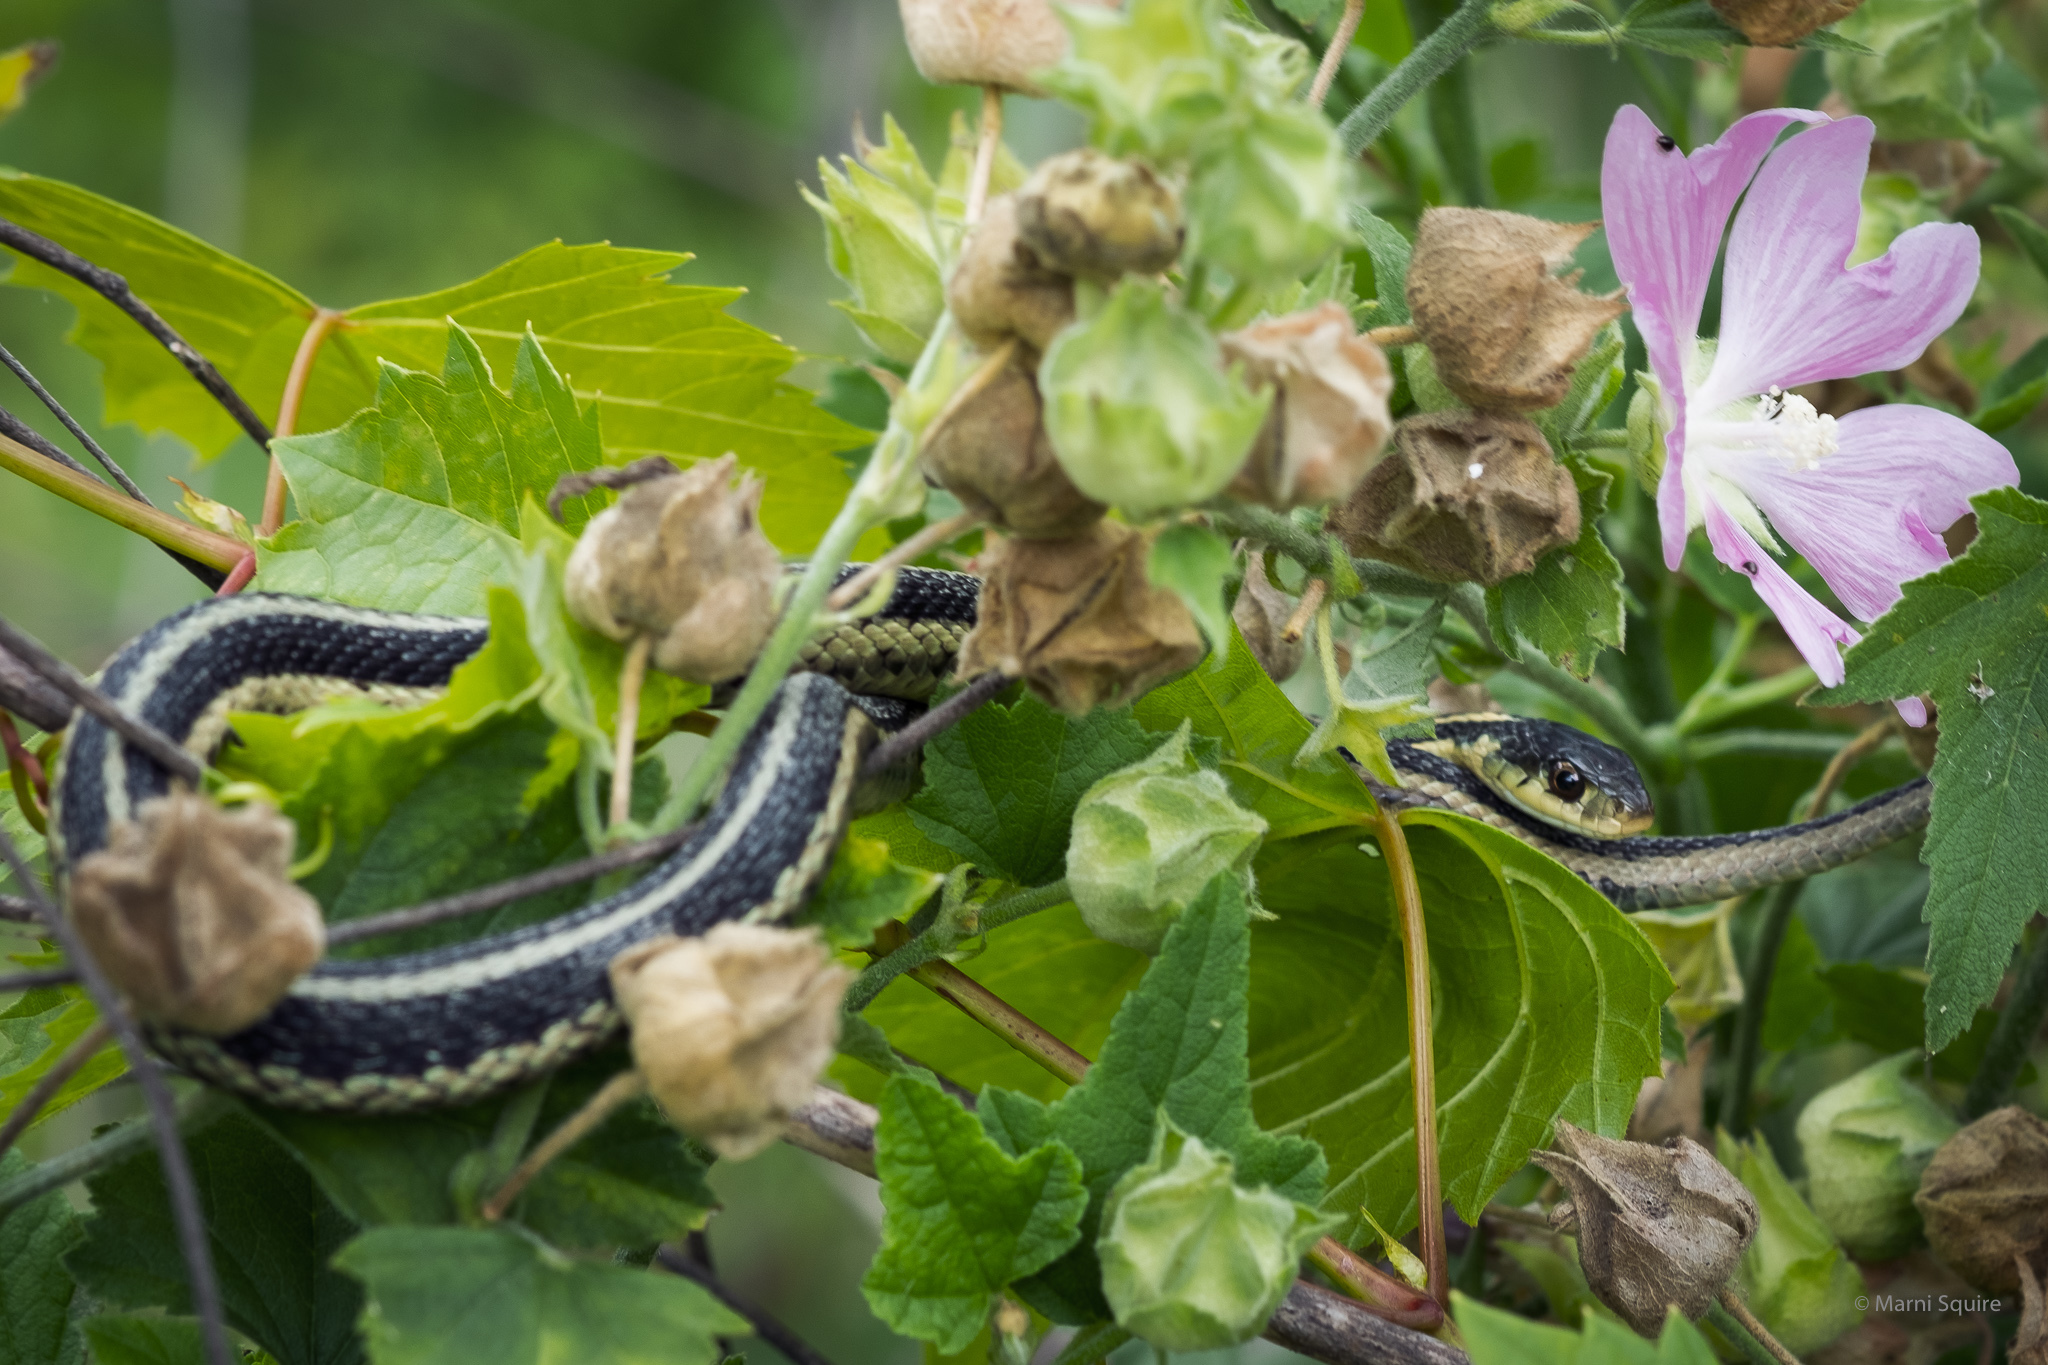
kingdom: Animalia
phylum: Chordata
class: Squamata
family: Colubridae
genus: Thamnophis
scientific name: Thamnophis sirtalis
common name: Common garter snake
